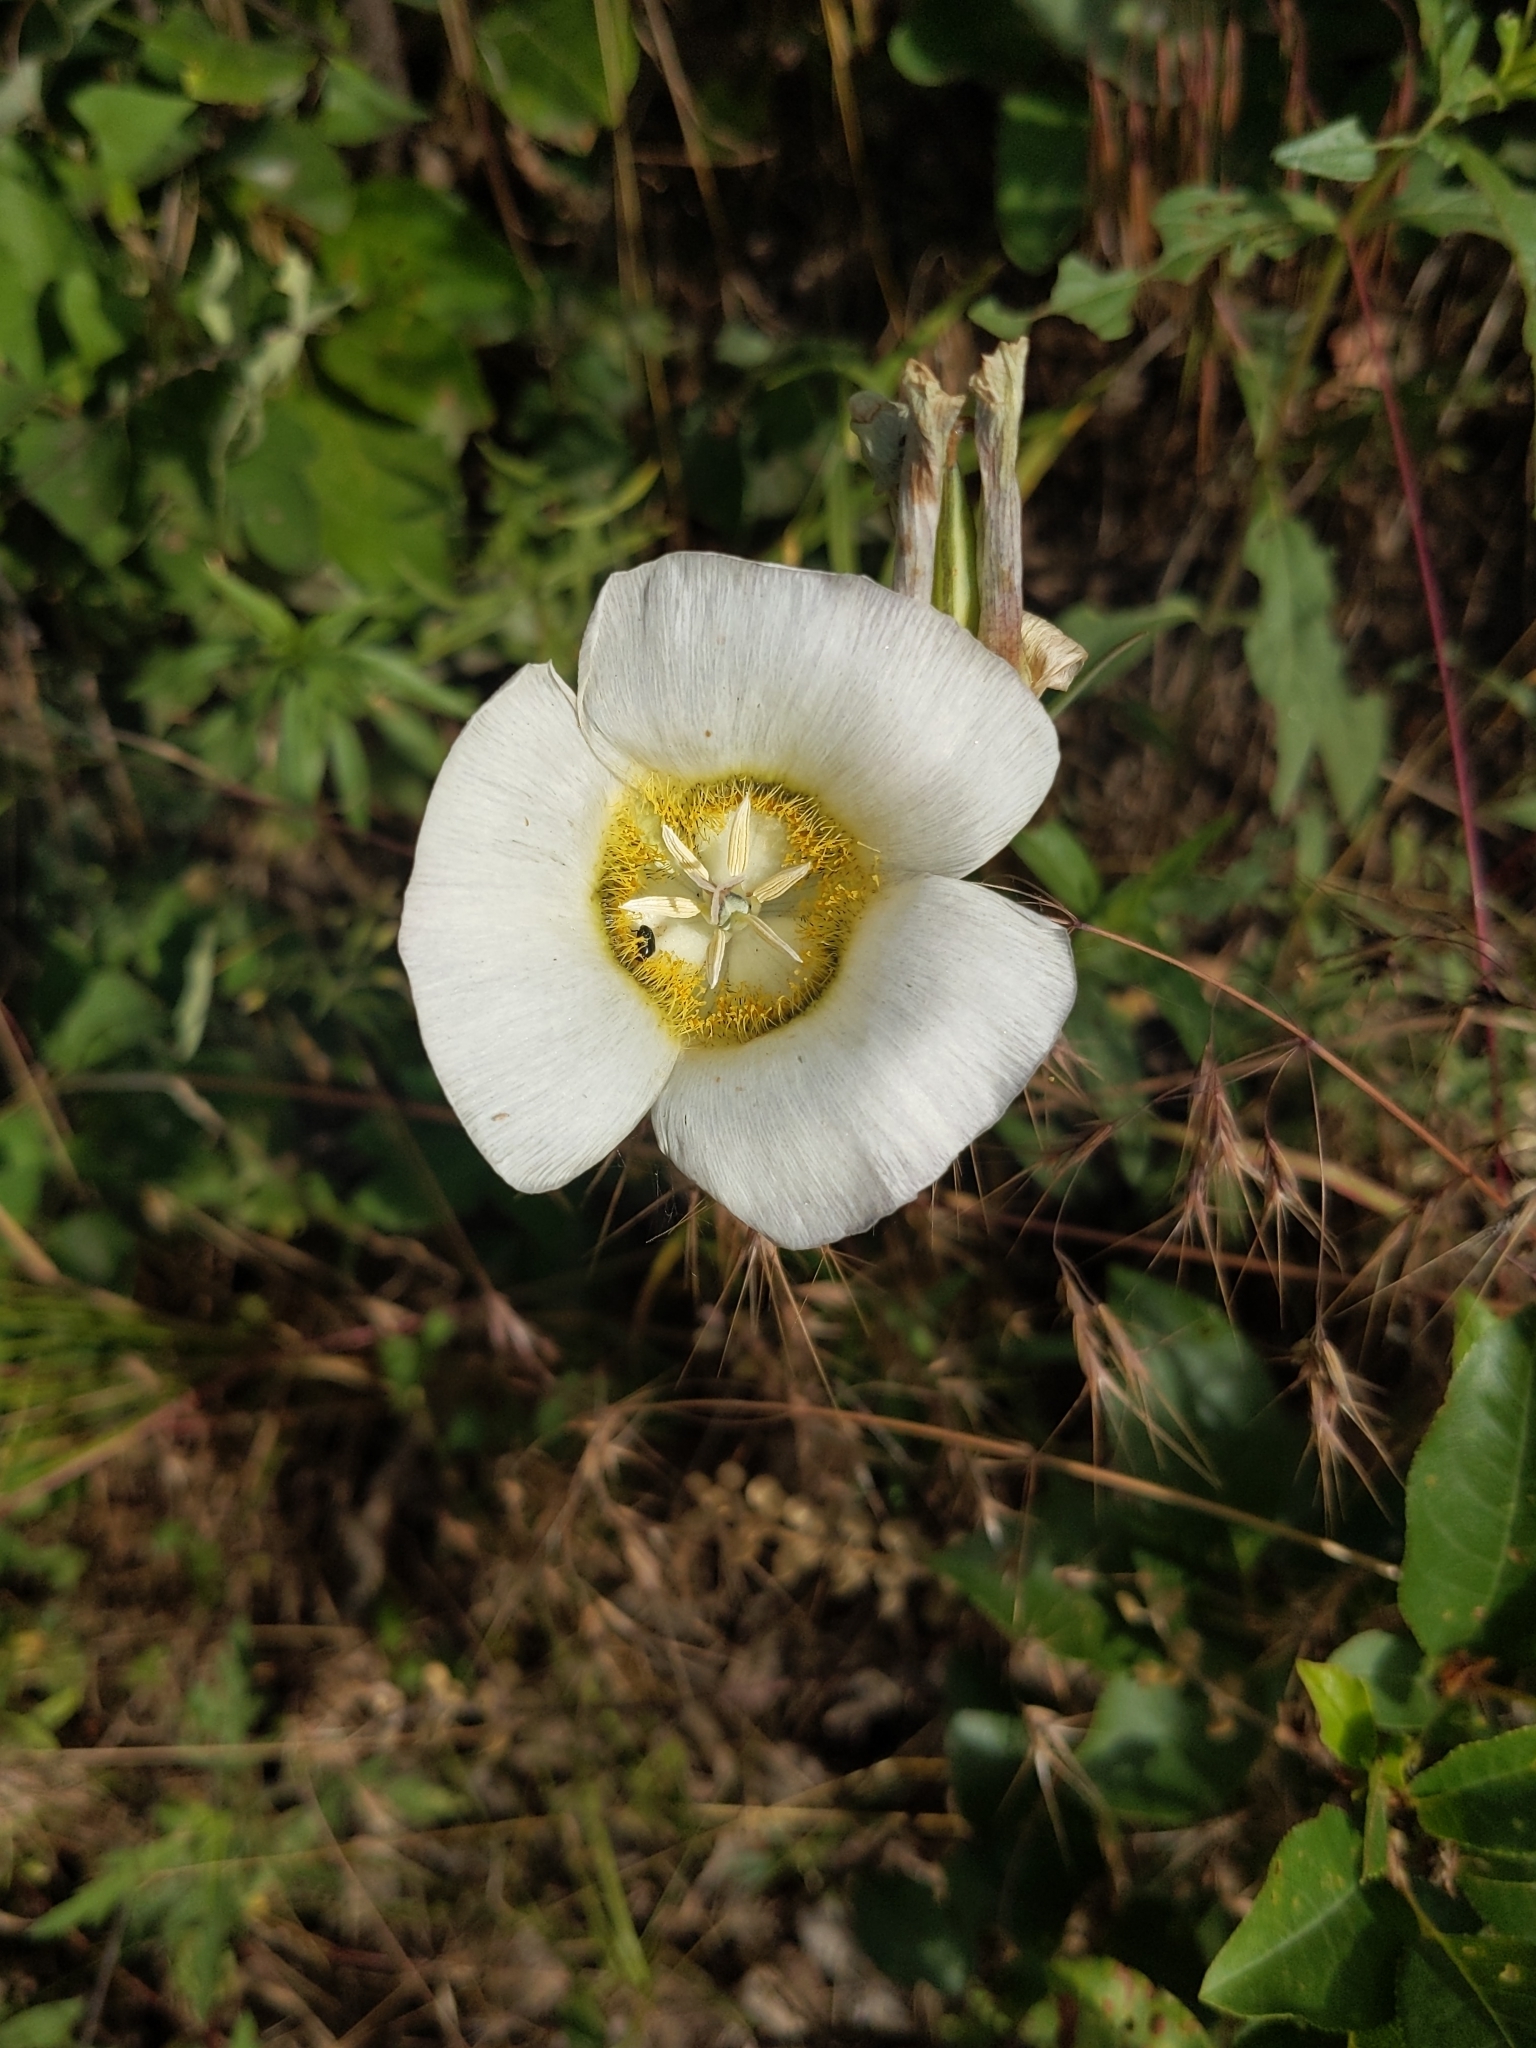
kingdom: Plantae
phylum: Tracheophyta
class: Liliopsida
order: Liliales
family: Liliaceae
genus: Calochortus
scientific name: Calochortus gunnisonii
